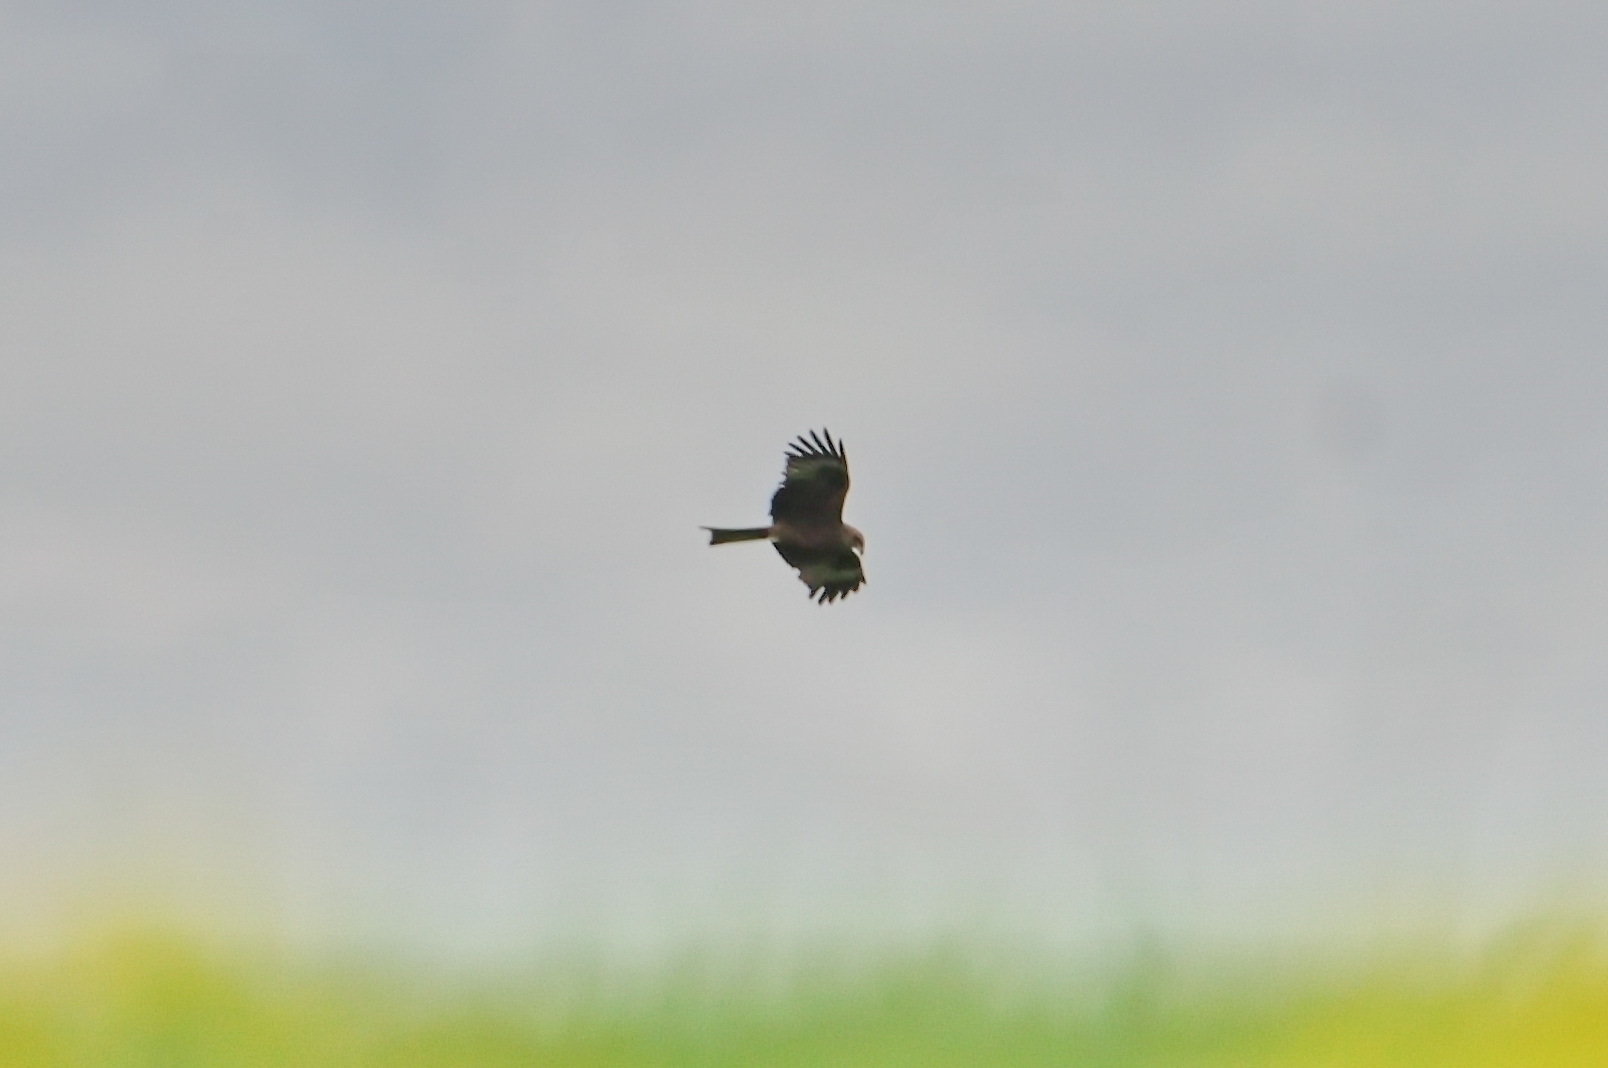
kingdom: Animalia
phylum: Chordata
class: Aves
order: Accipitriformes
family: Accipitridae
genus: Milvus
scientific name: Milvus migrans
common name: Black kite
